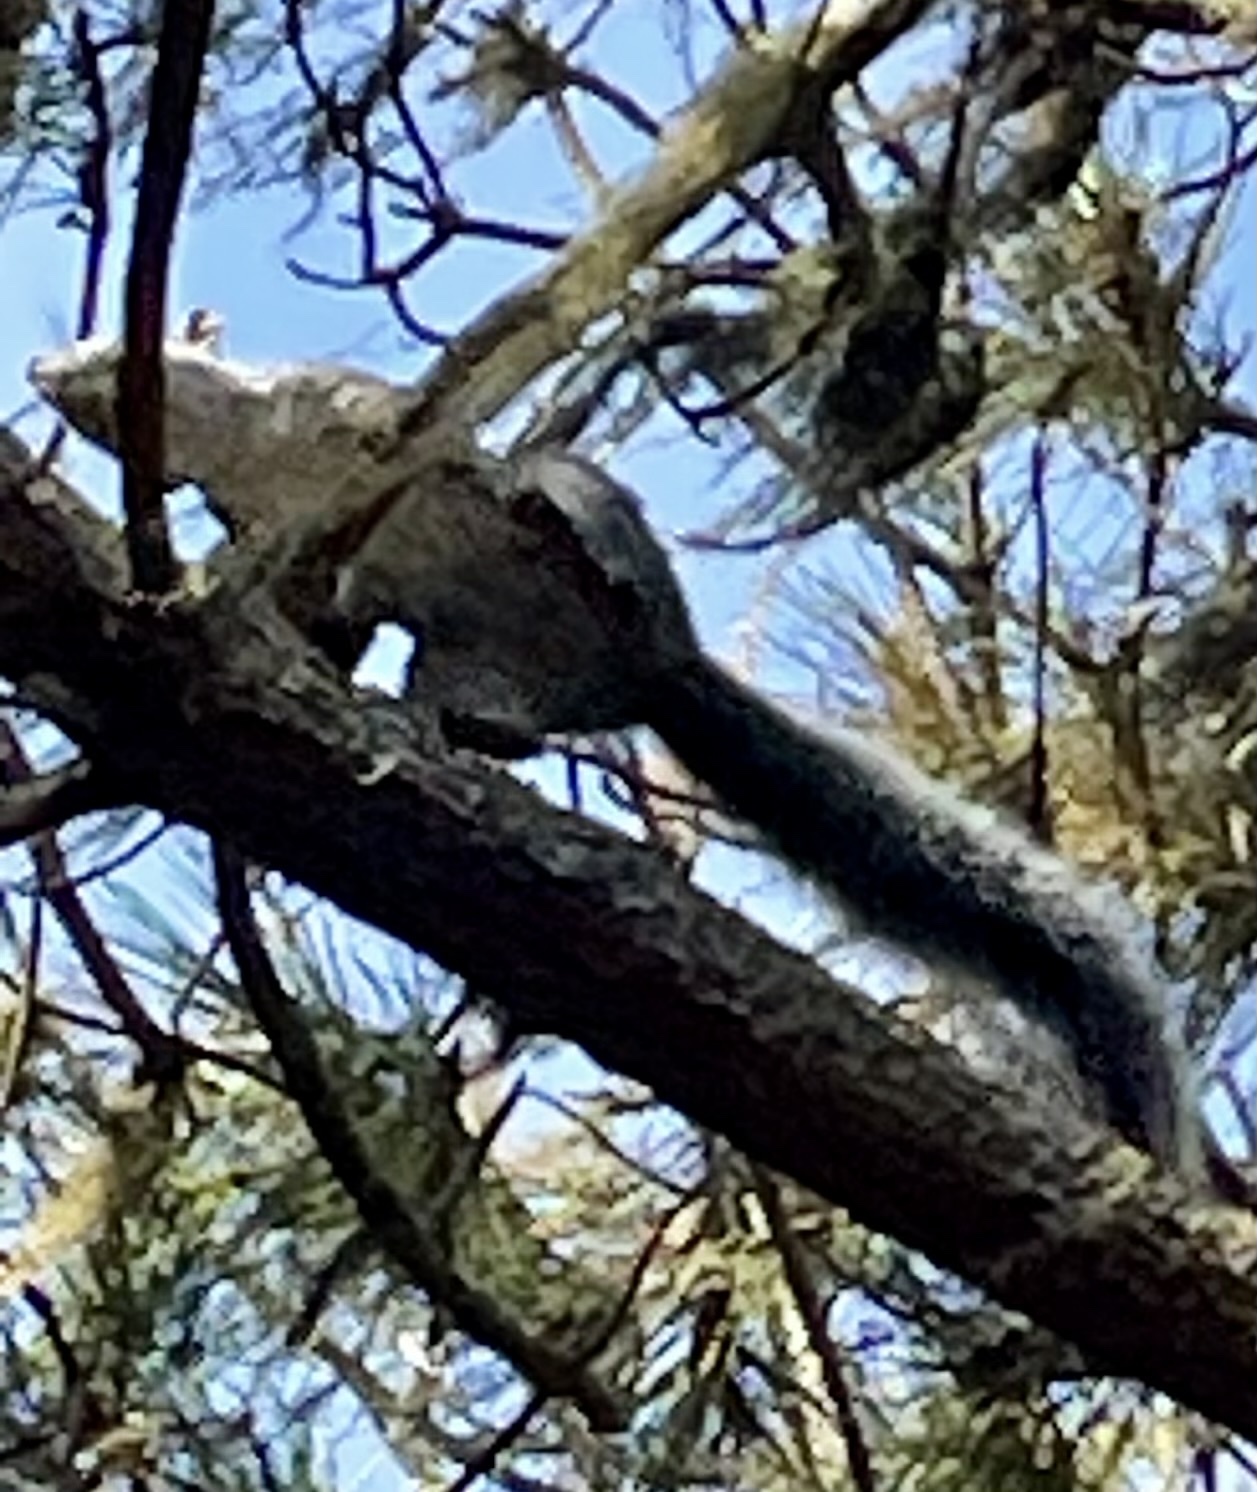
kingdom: Animalia
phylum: Chordata
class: Mammalia
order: Rodentia
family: Sciuridae
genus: Sciurus
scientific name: Sciurus griseus
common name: Western gray squirrel
